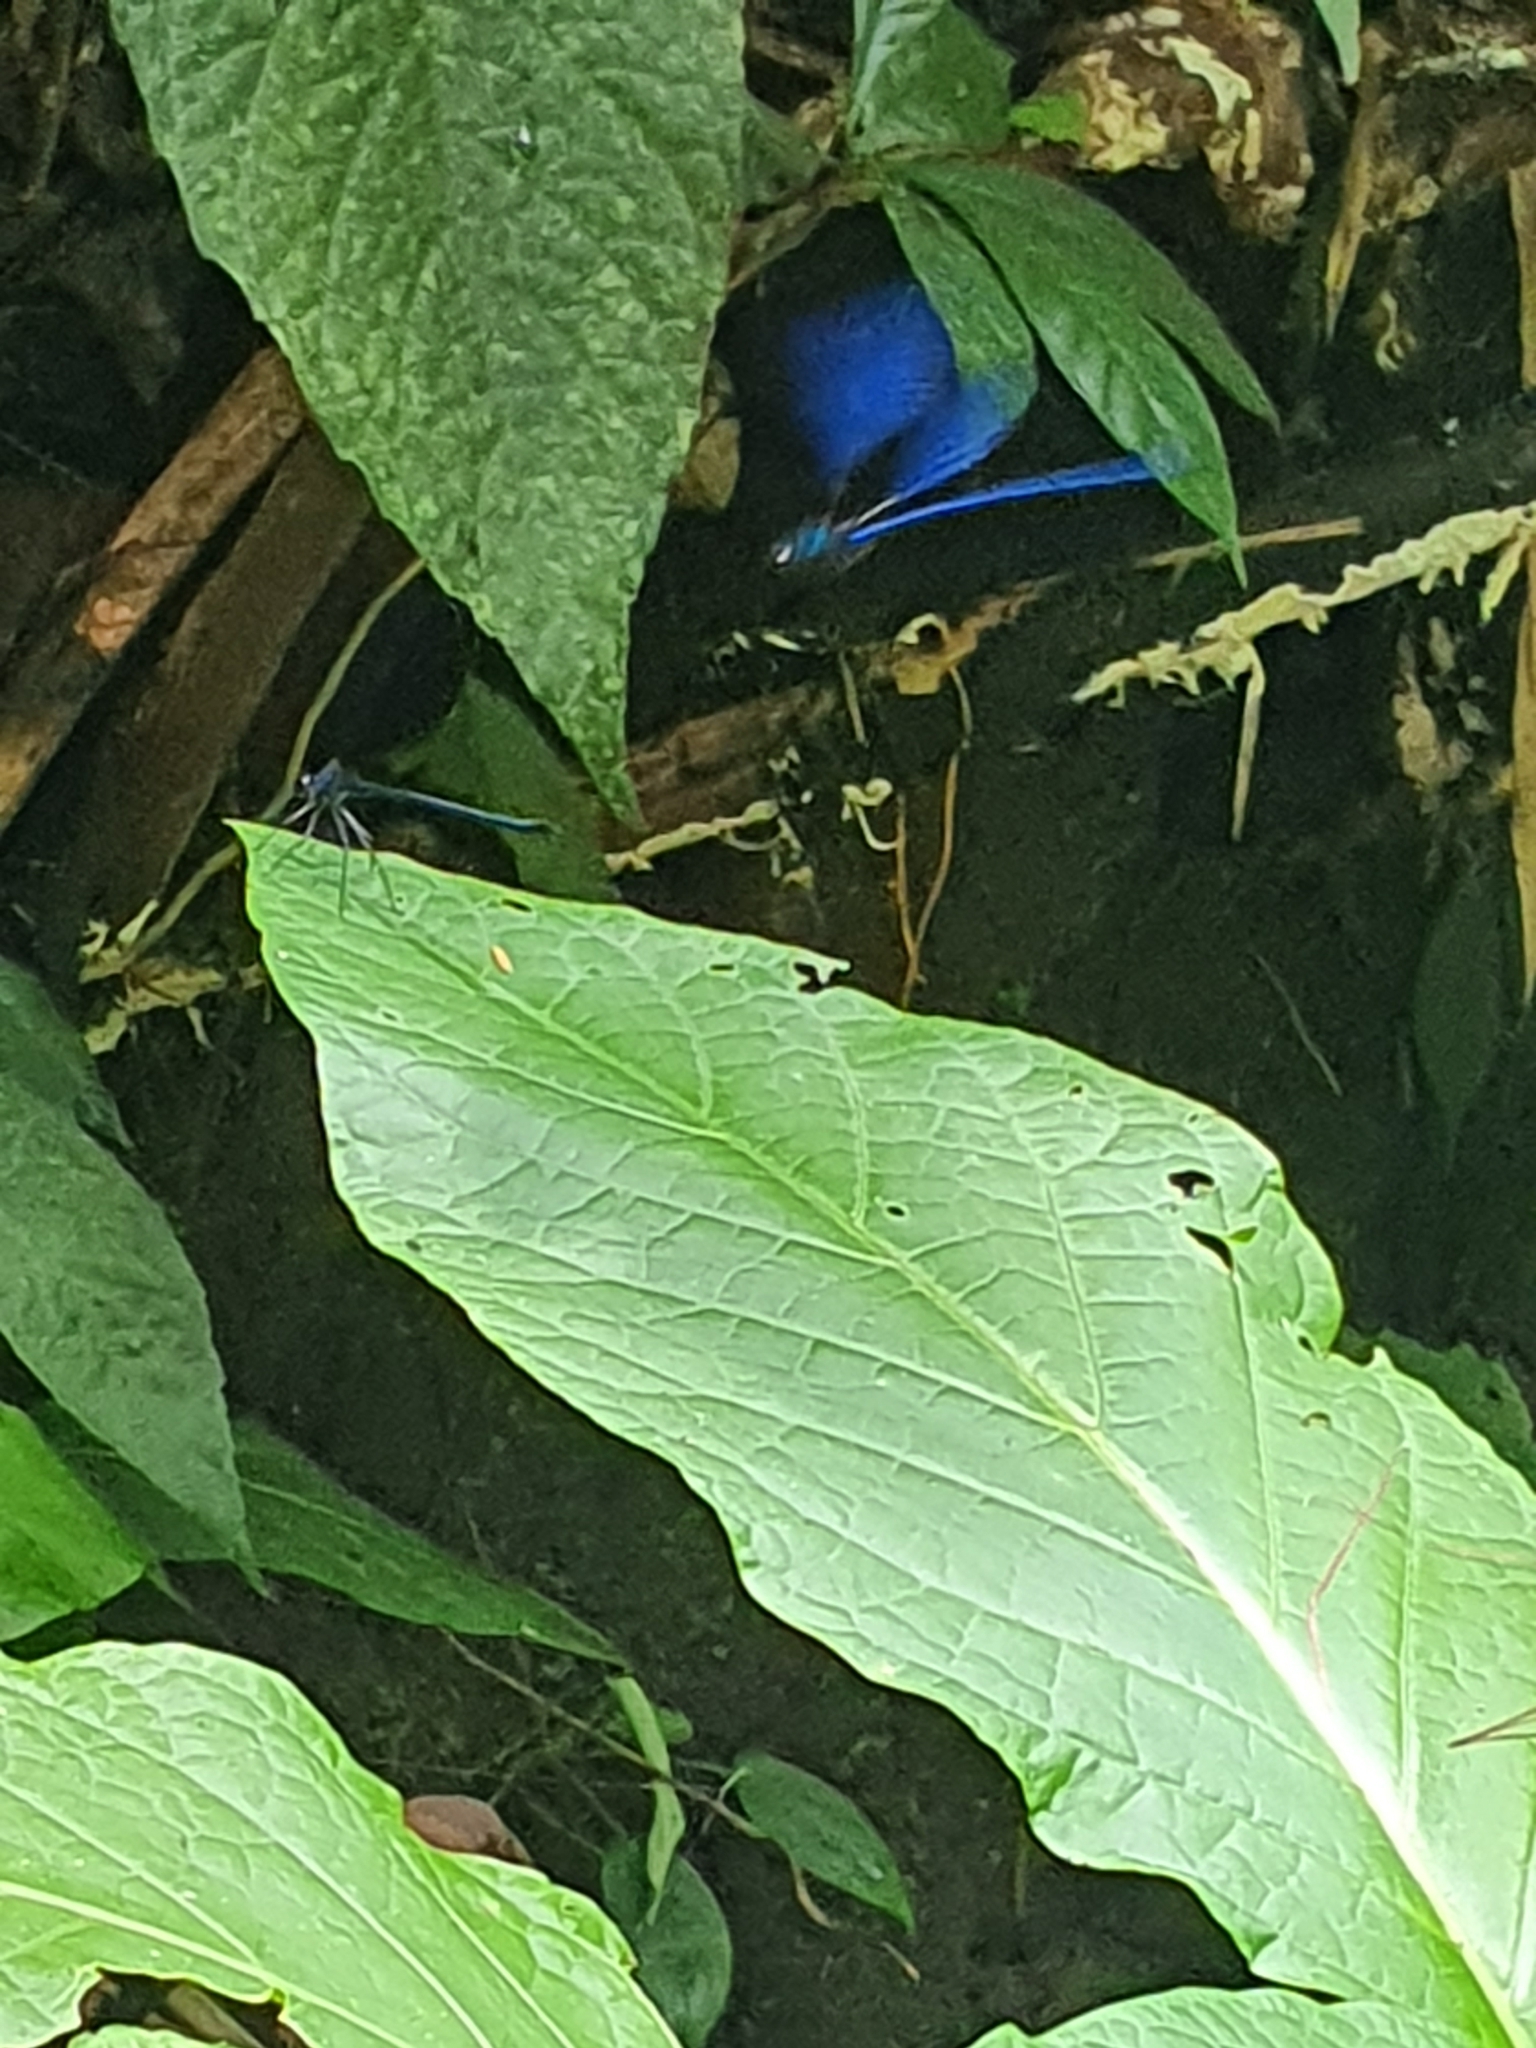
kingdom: Animalia
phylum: Arthropoda
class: Insecta
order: Odonata
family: Calopterygidae
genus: Vestalis
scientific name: Vestalis luctuosa
